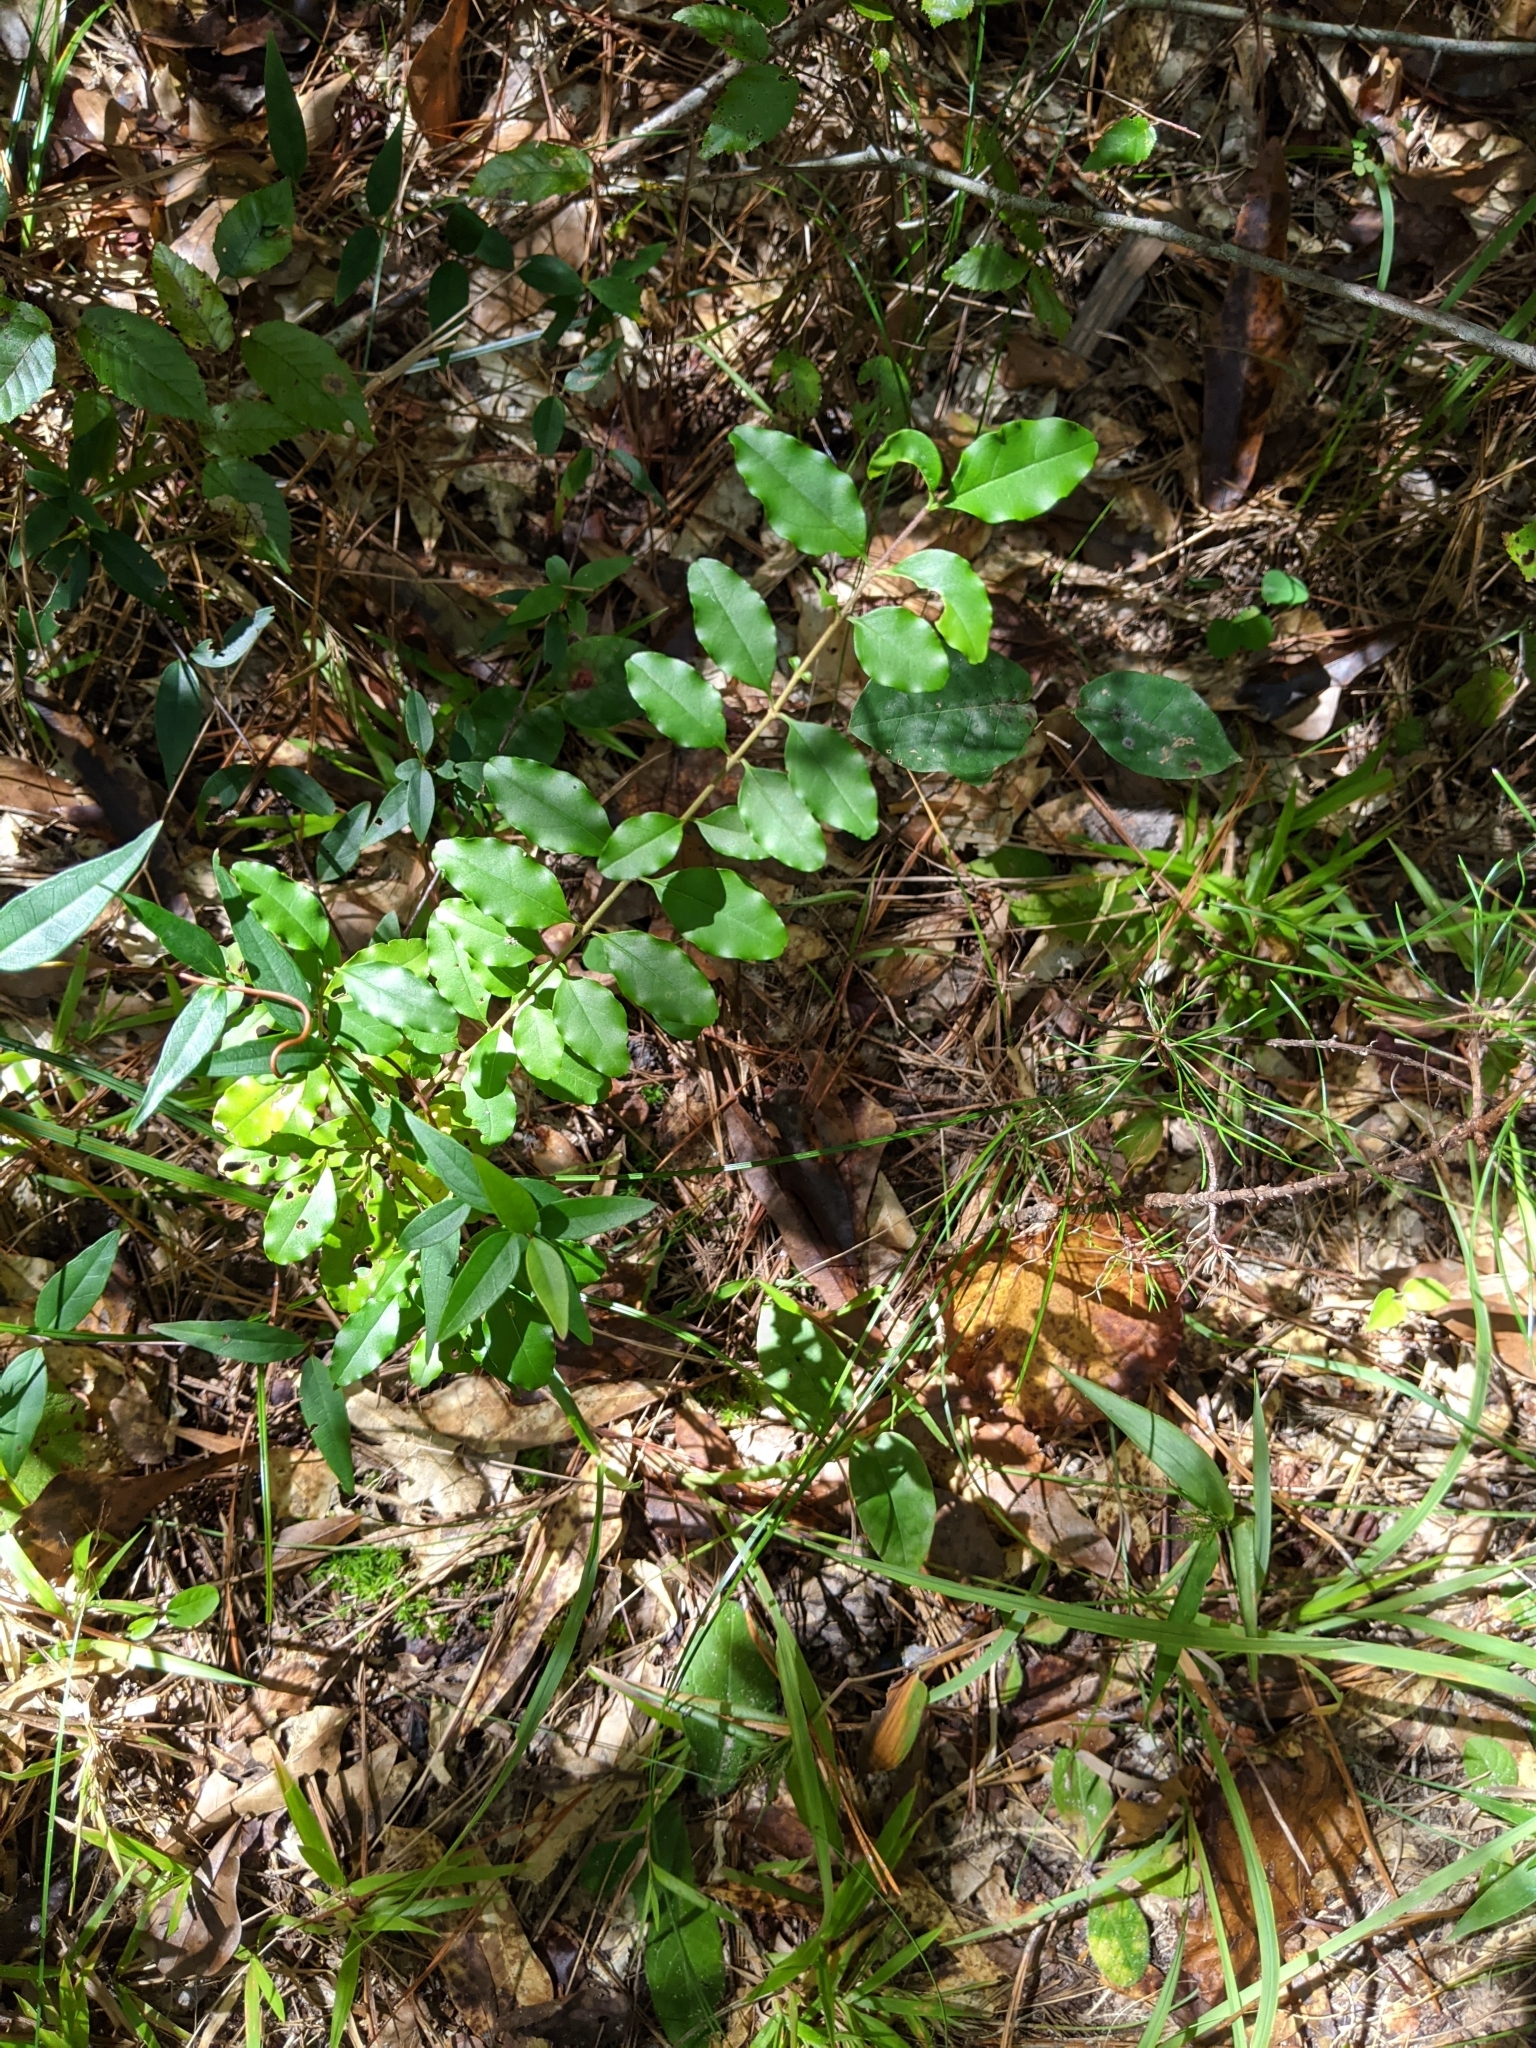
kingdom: Plantae
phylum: Tracheophyta
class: Magnoliopsida
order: Lamiales
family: Oleaceae
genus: Ligustrum
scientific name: Ligustrum sinense
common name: Chinese privet
